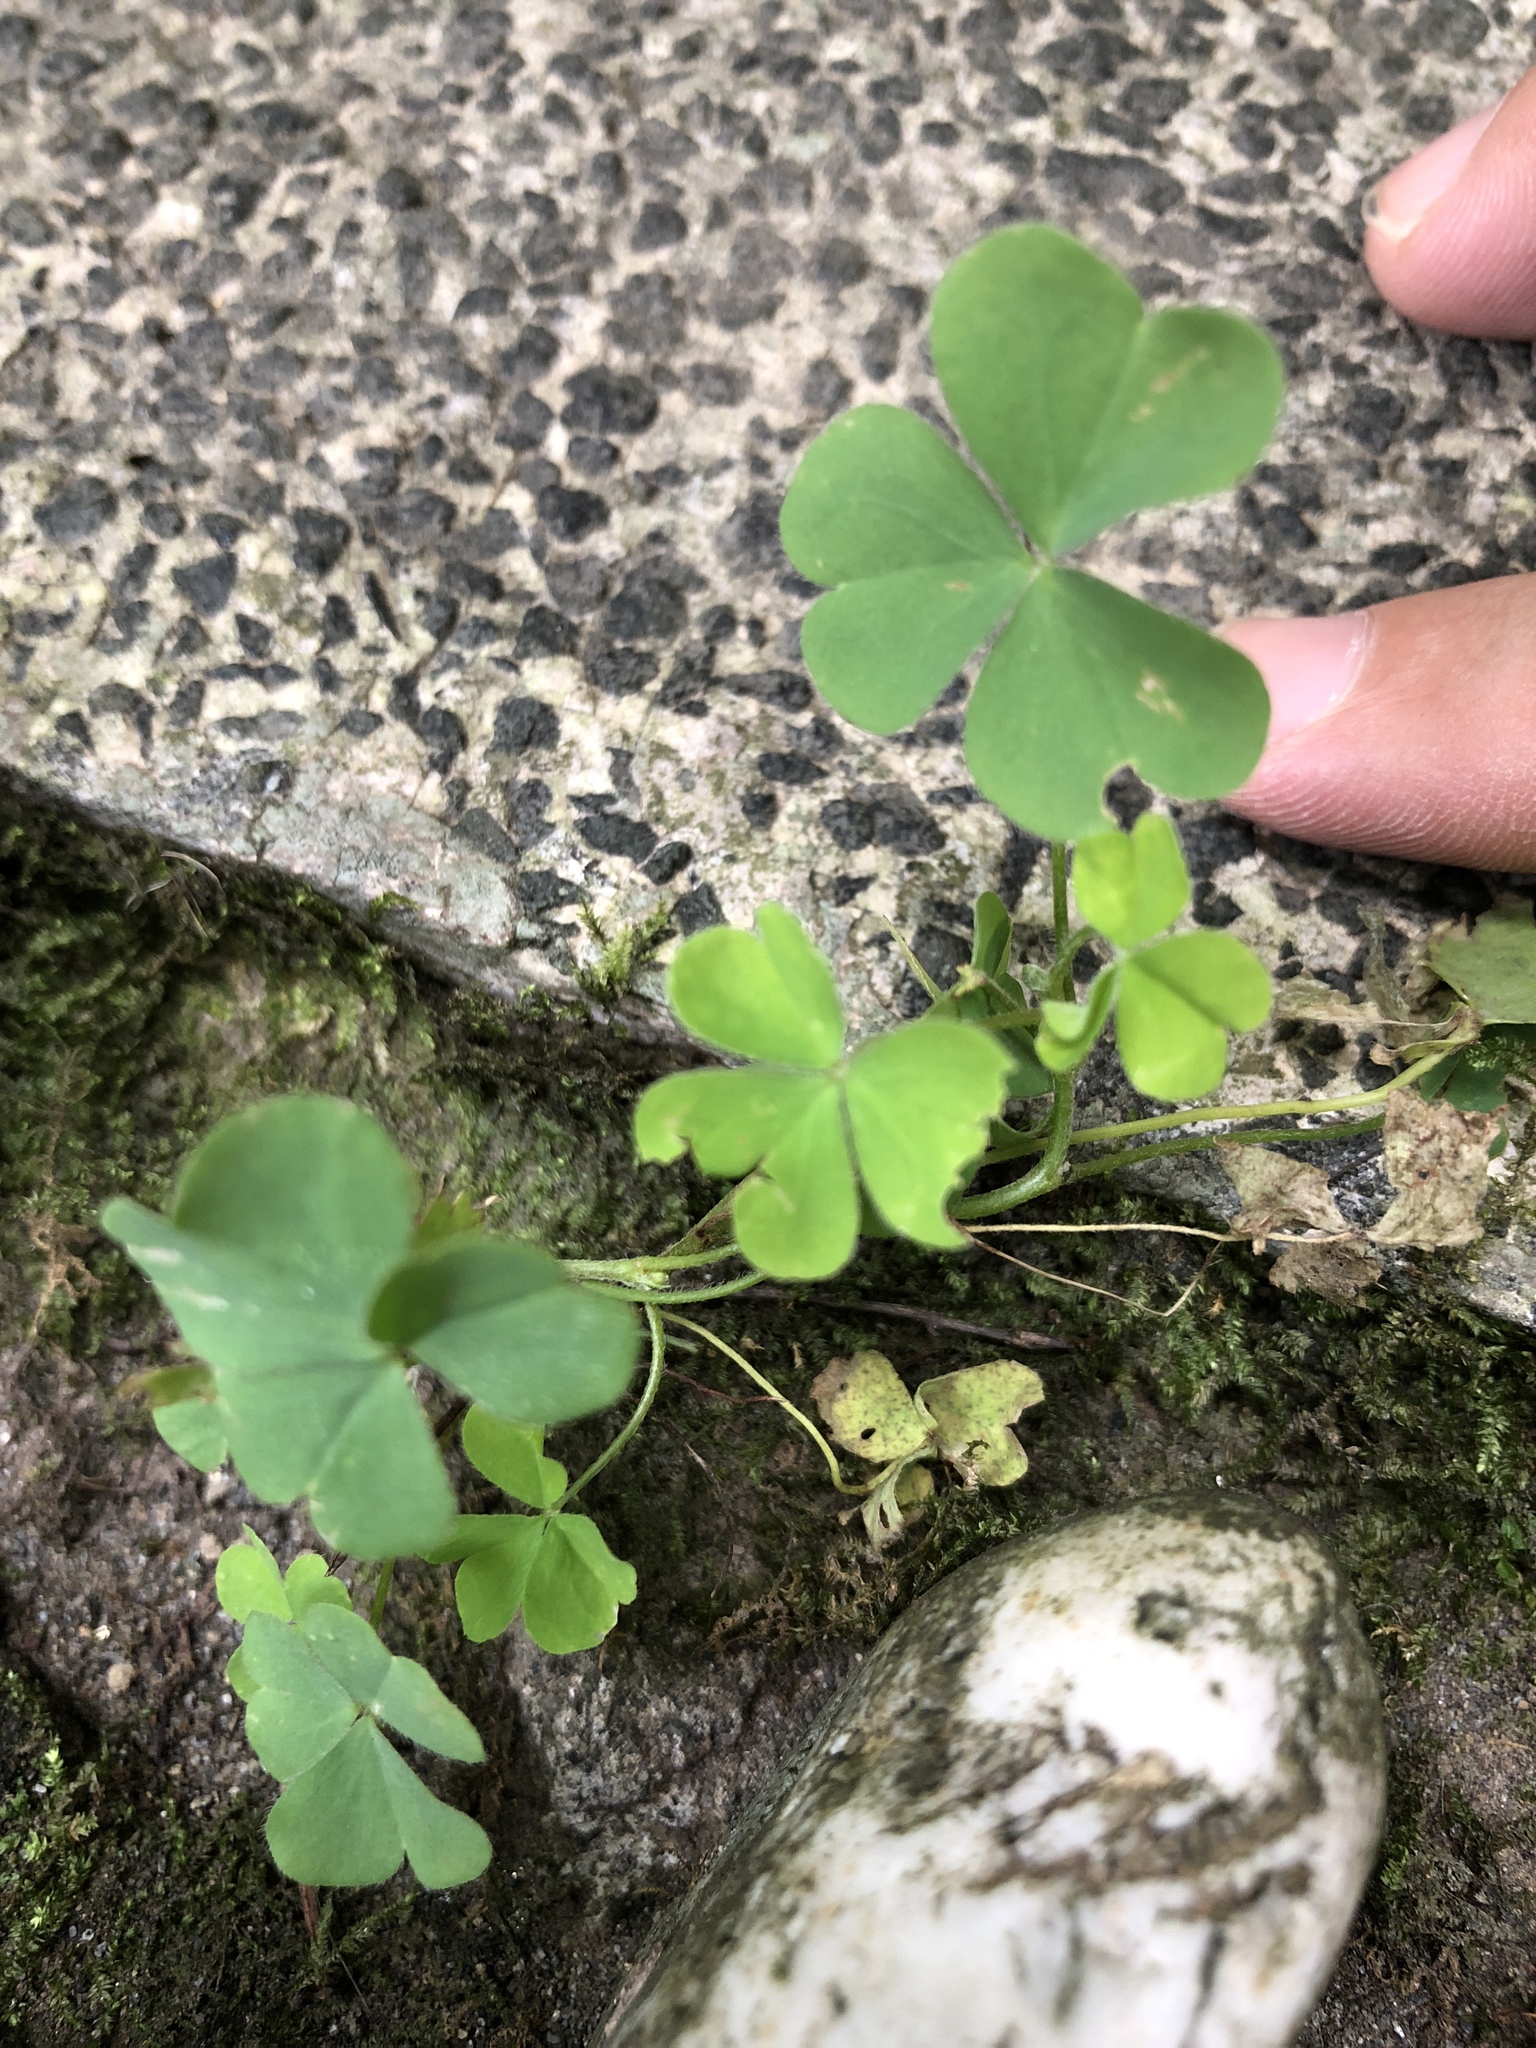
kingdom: Plantae
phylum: Tracheophyta
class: Magnoliopsida
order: Oxalidales
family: Oxalidaceae
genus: Oxalis
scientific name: Oxalis corniculata
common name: Procumbent yellow-sorrel
